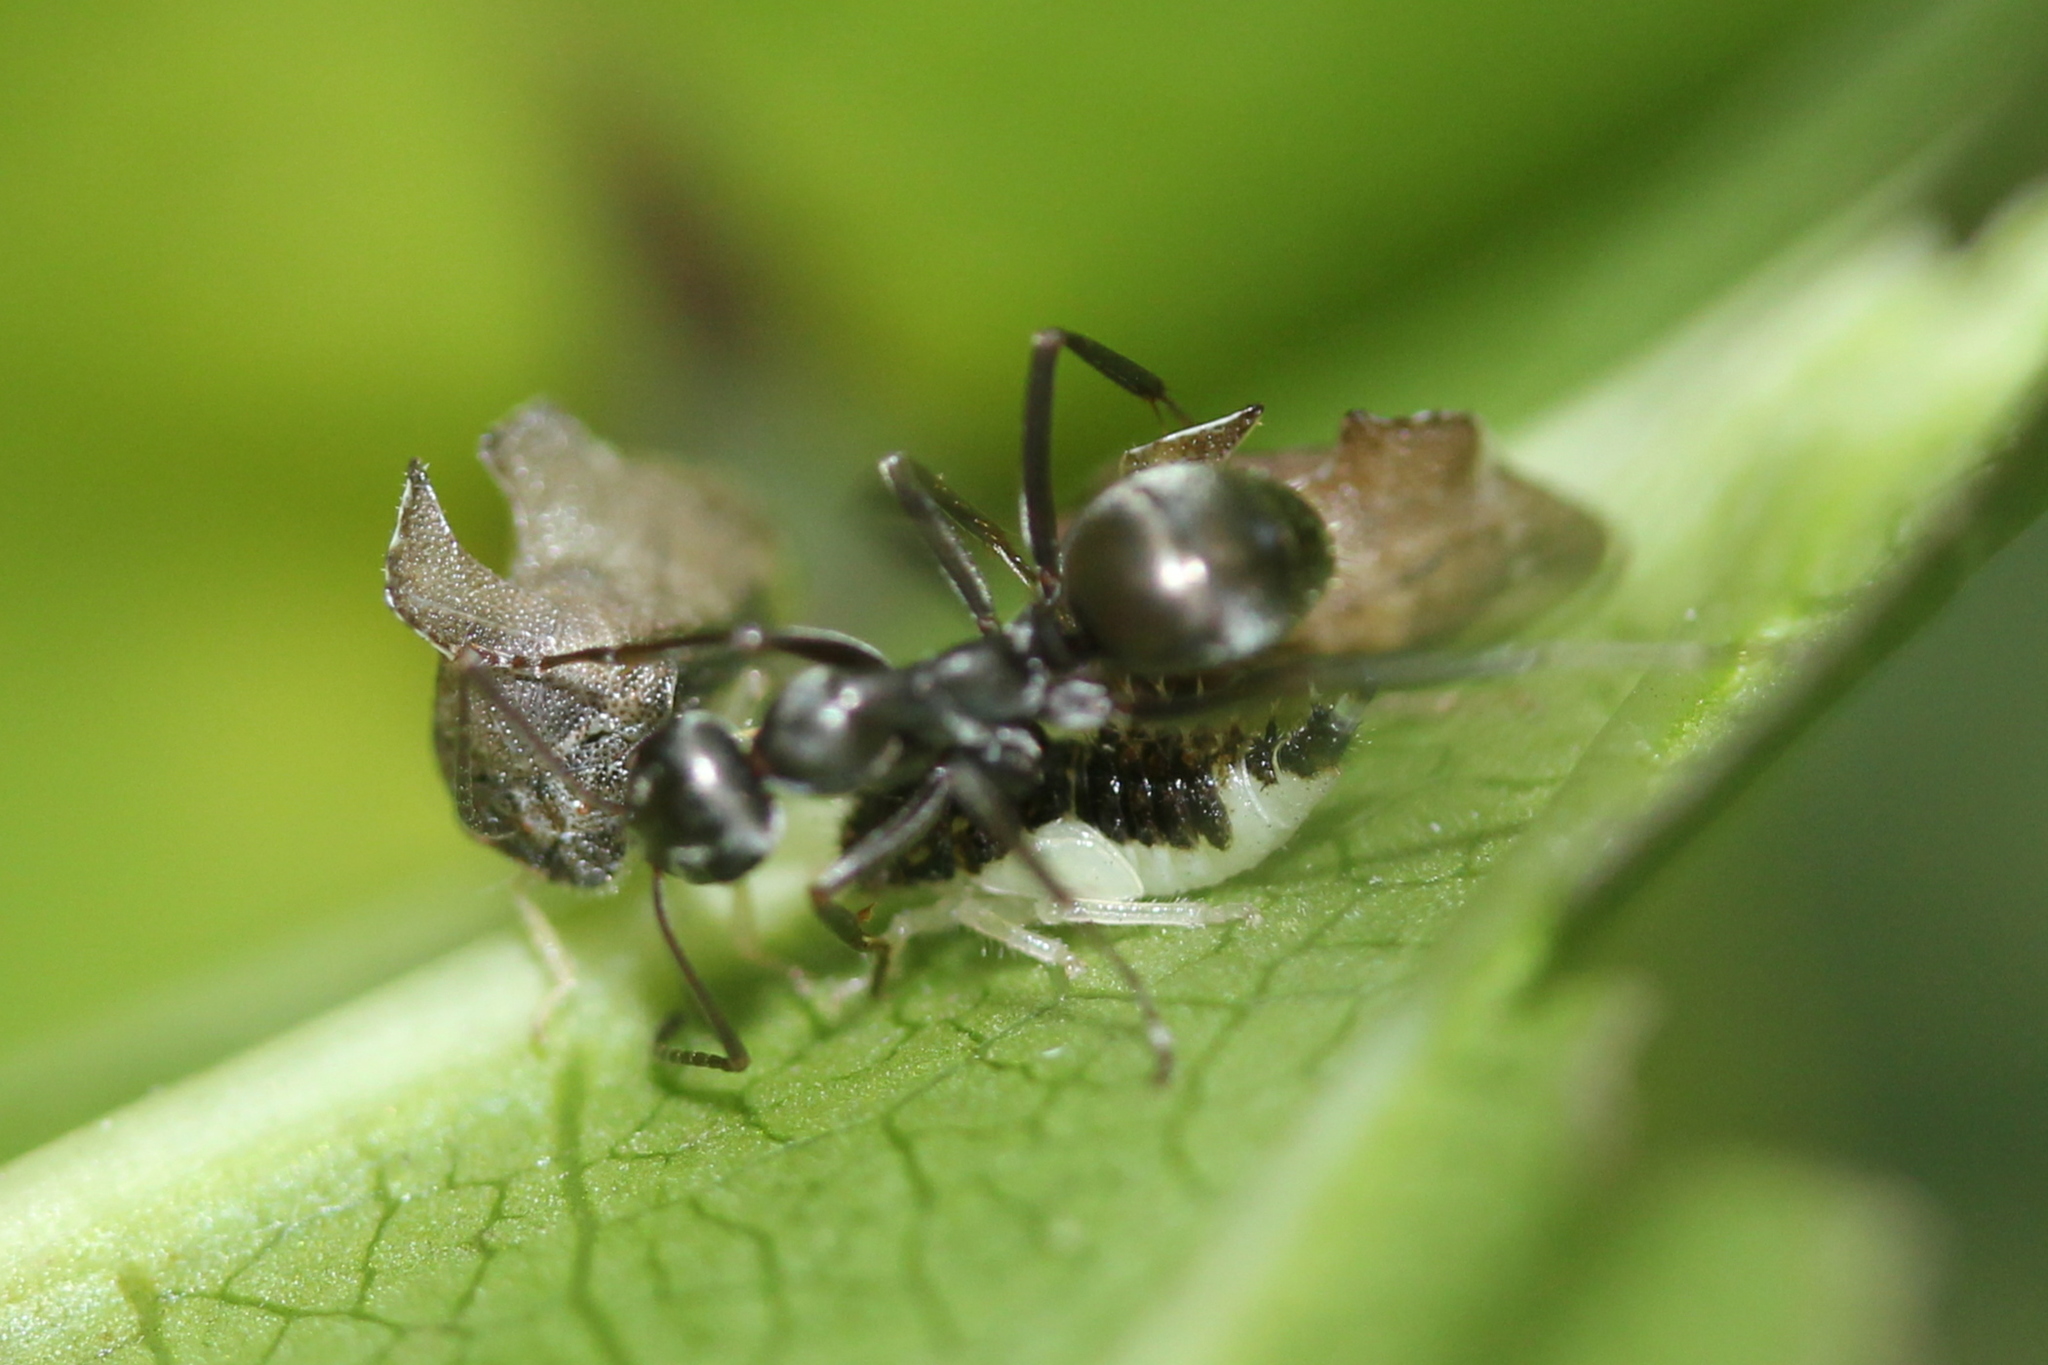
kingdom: Animalia
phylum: Arthropoda
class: Insecta
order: Hemiptera
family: Membracidae
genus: Entylia
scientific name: Entylia carinata
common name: Keeled treehopper
